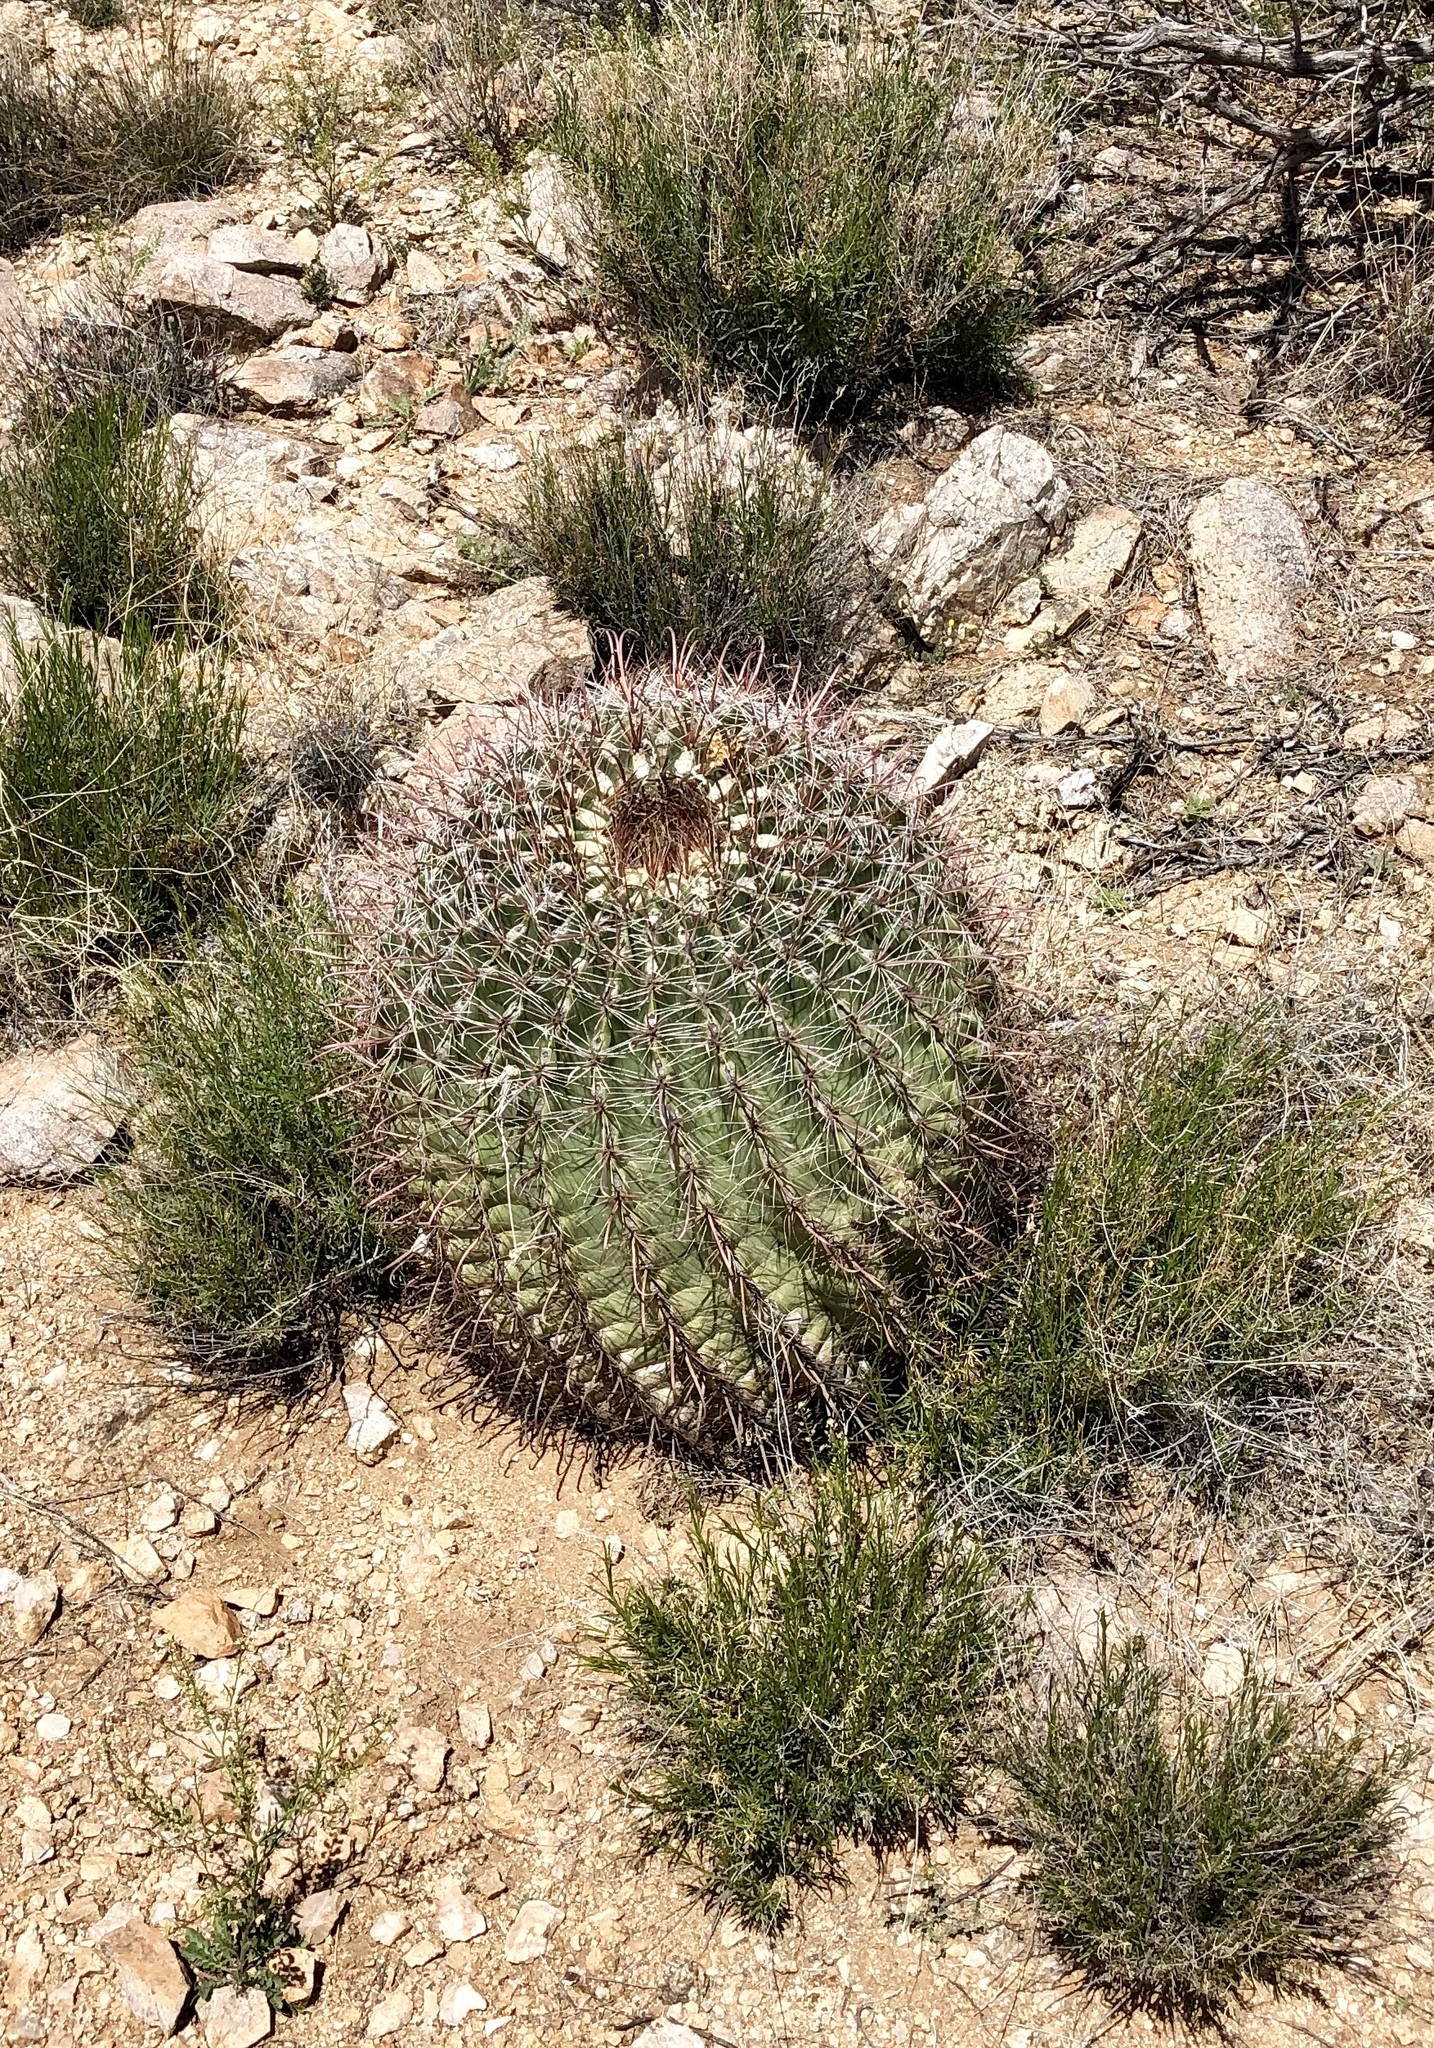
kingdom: Plantae
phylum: Tracheophyta
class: Magnoliopsida
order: Caryophyllales
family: Cactaceae
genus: Ferocactus
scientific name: Ferocactus wislizeni
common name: Candy barrel cactus
